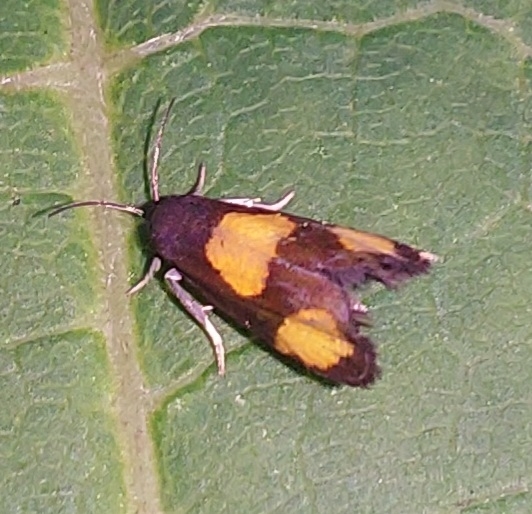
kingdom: Animalia
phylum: Arthropoda
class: Insecta
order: Lepidoptera
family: Tortricidae
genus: Pammene
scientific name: Pammene aurana
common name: Orange-spot piercer
